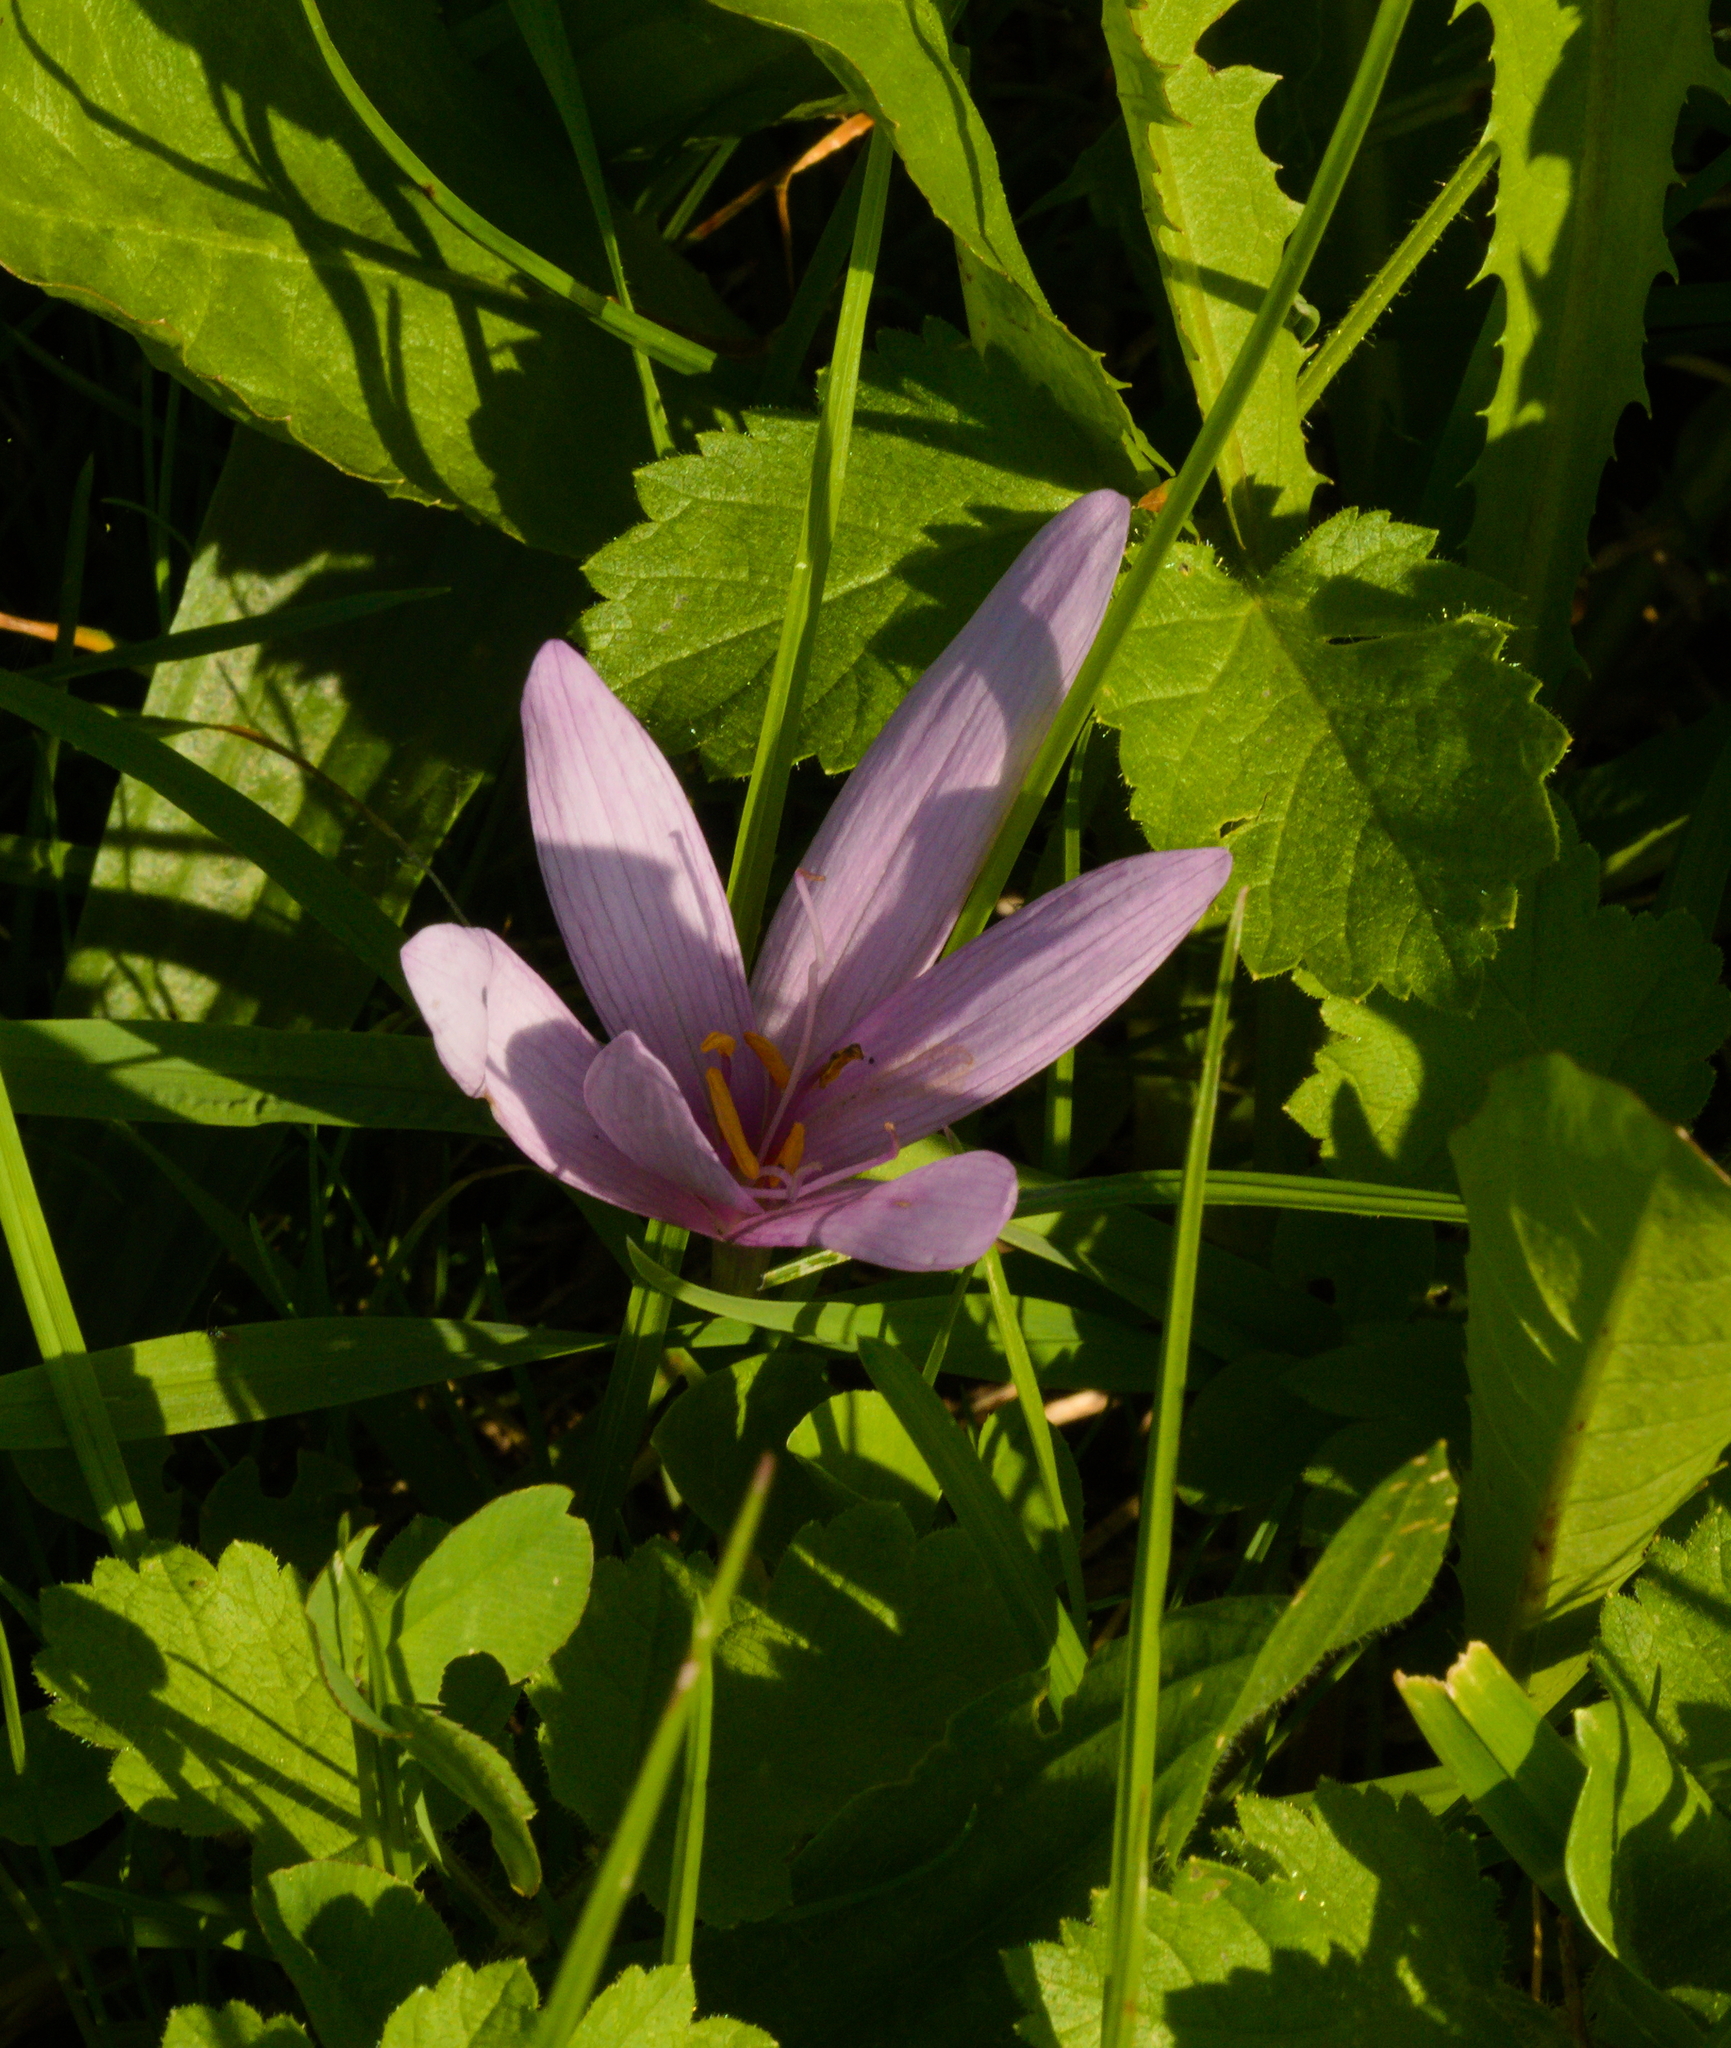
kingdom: Plantae
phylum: Tracheophyta
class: Liliopsida
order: Liliales
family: Colchicaceae
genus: Colchicum
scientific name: Colchicum autumnale
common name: Autumn crocus
